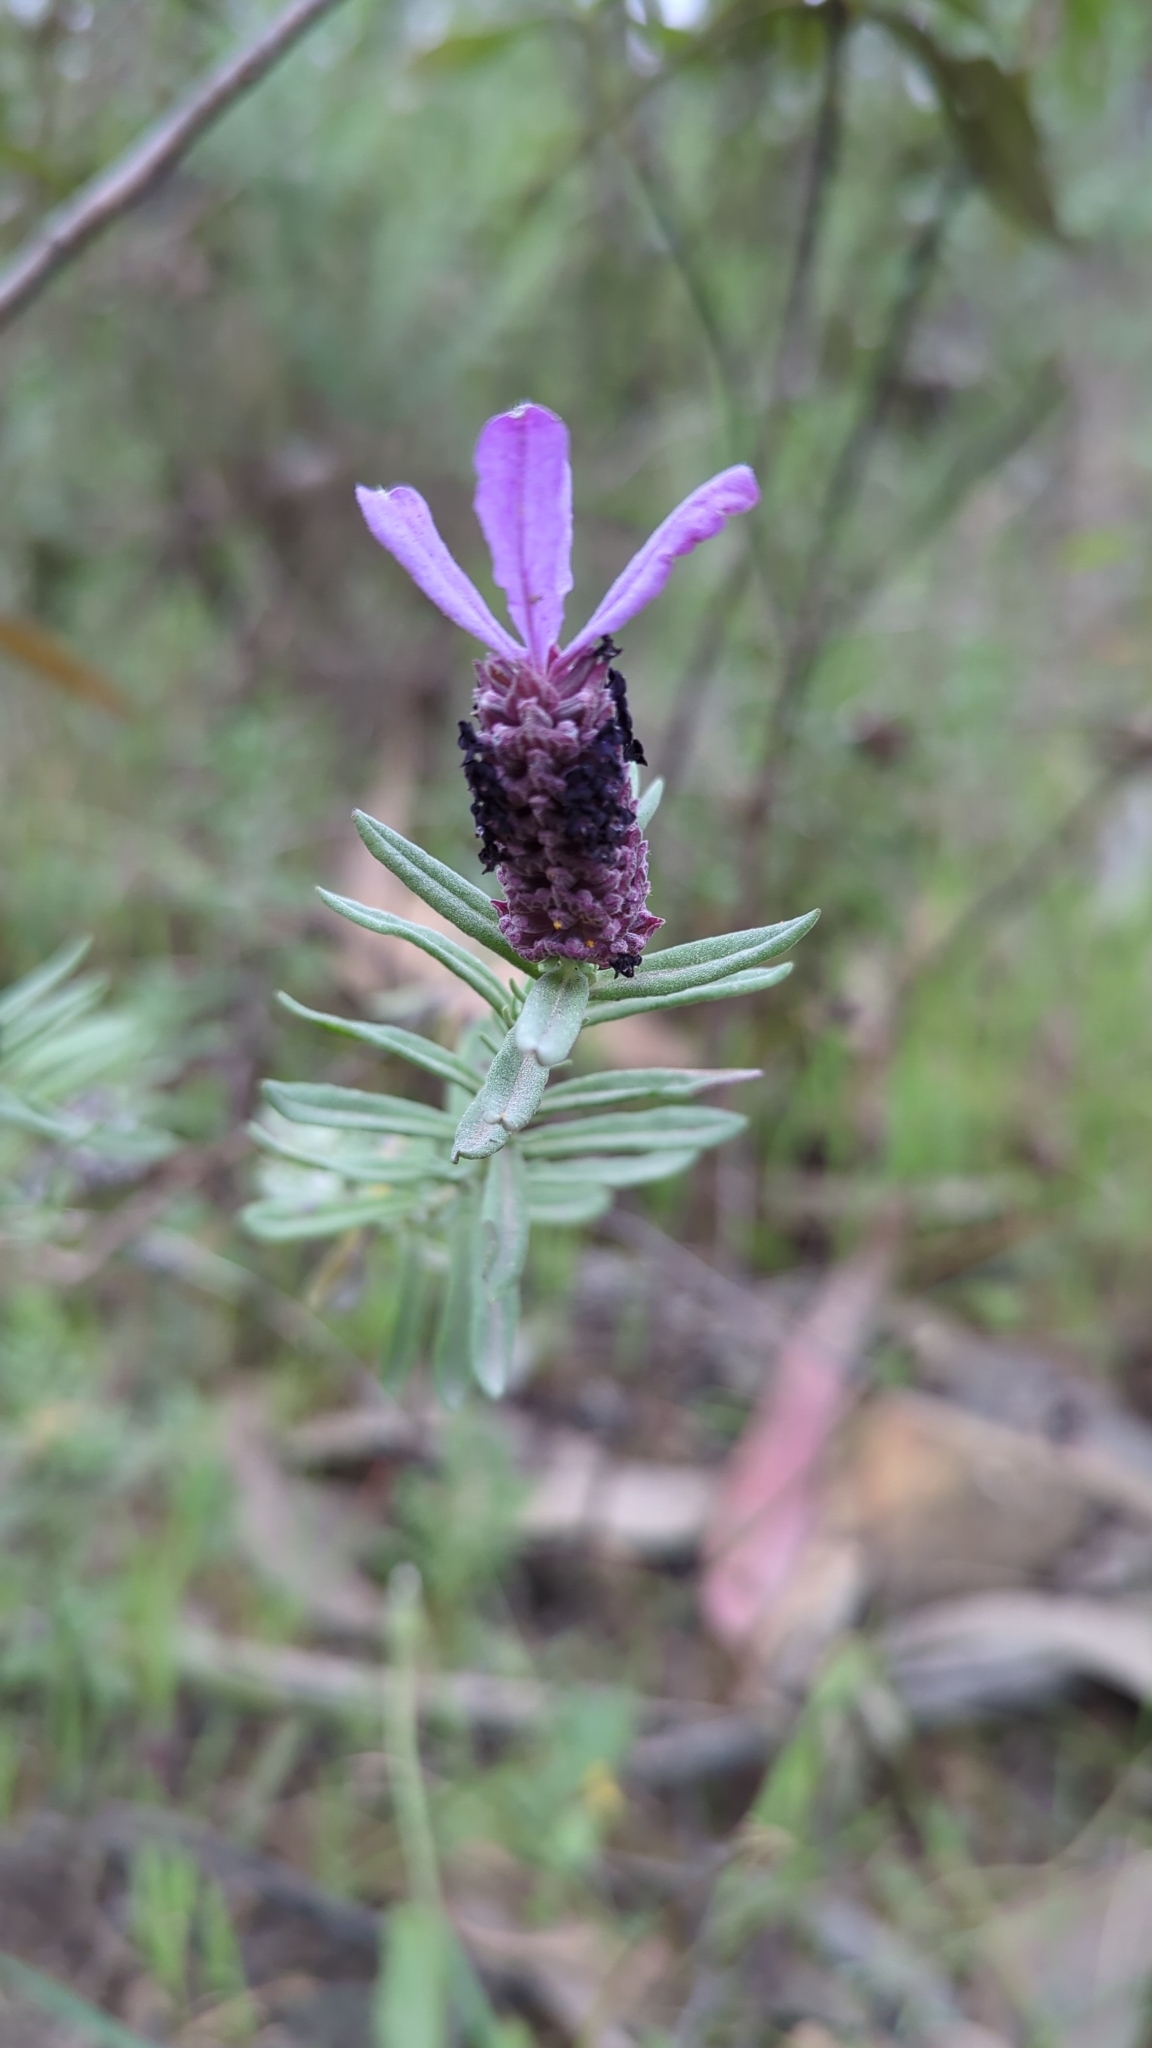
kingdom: Plantae
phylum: Tracheophyta
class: Magnoliopsida
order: Lamiales
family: Lamiaceae
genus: Lavandula
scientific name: Lavandula stoechas
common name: French lavender
